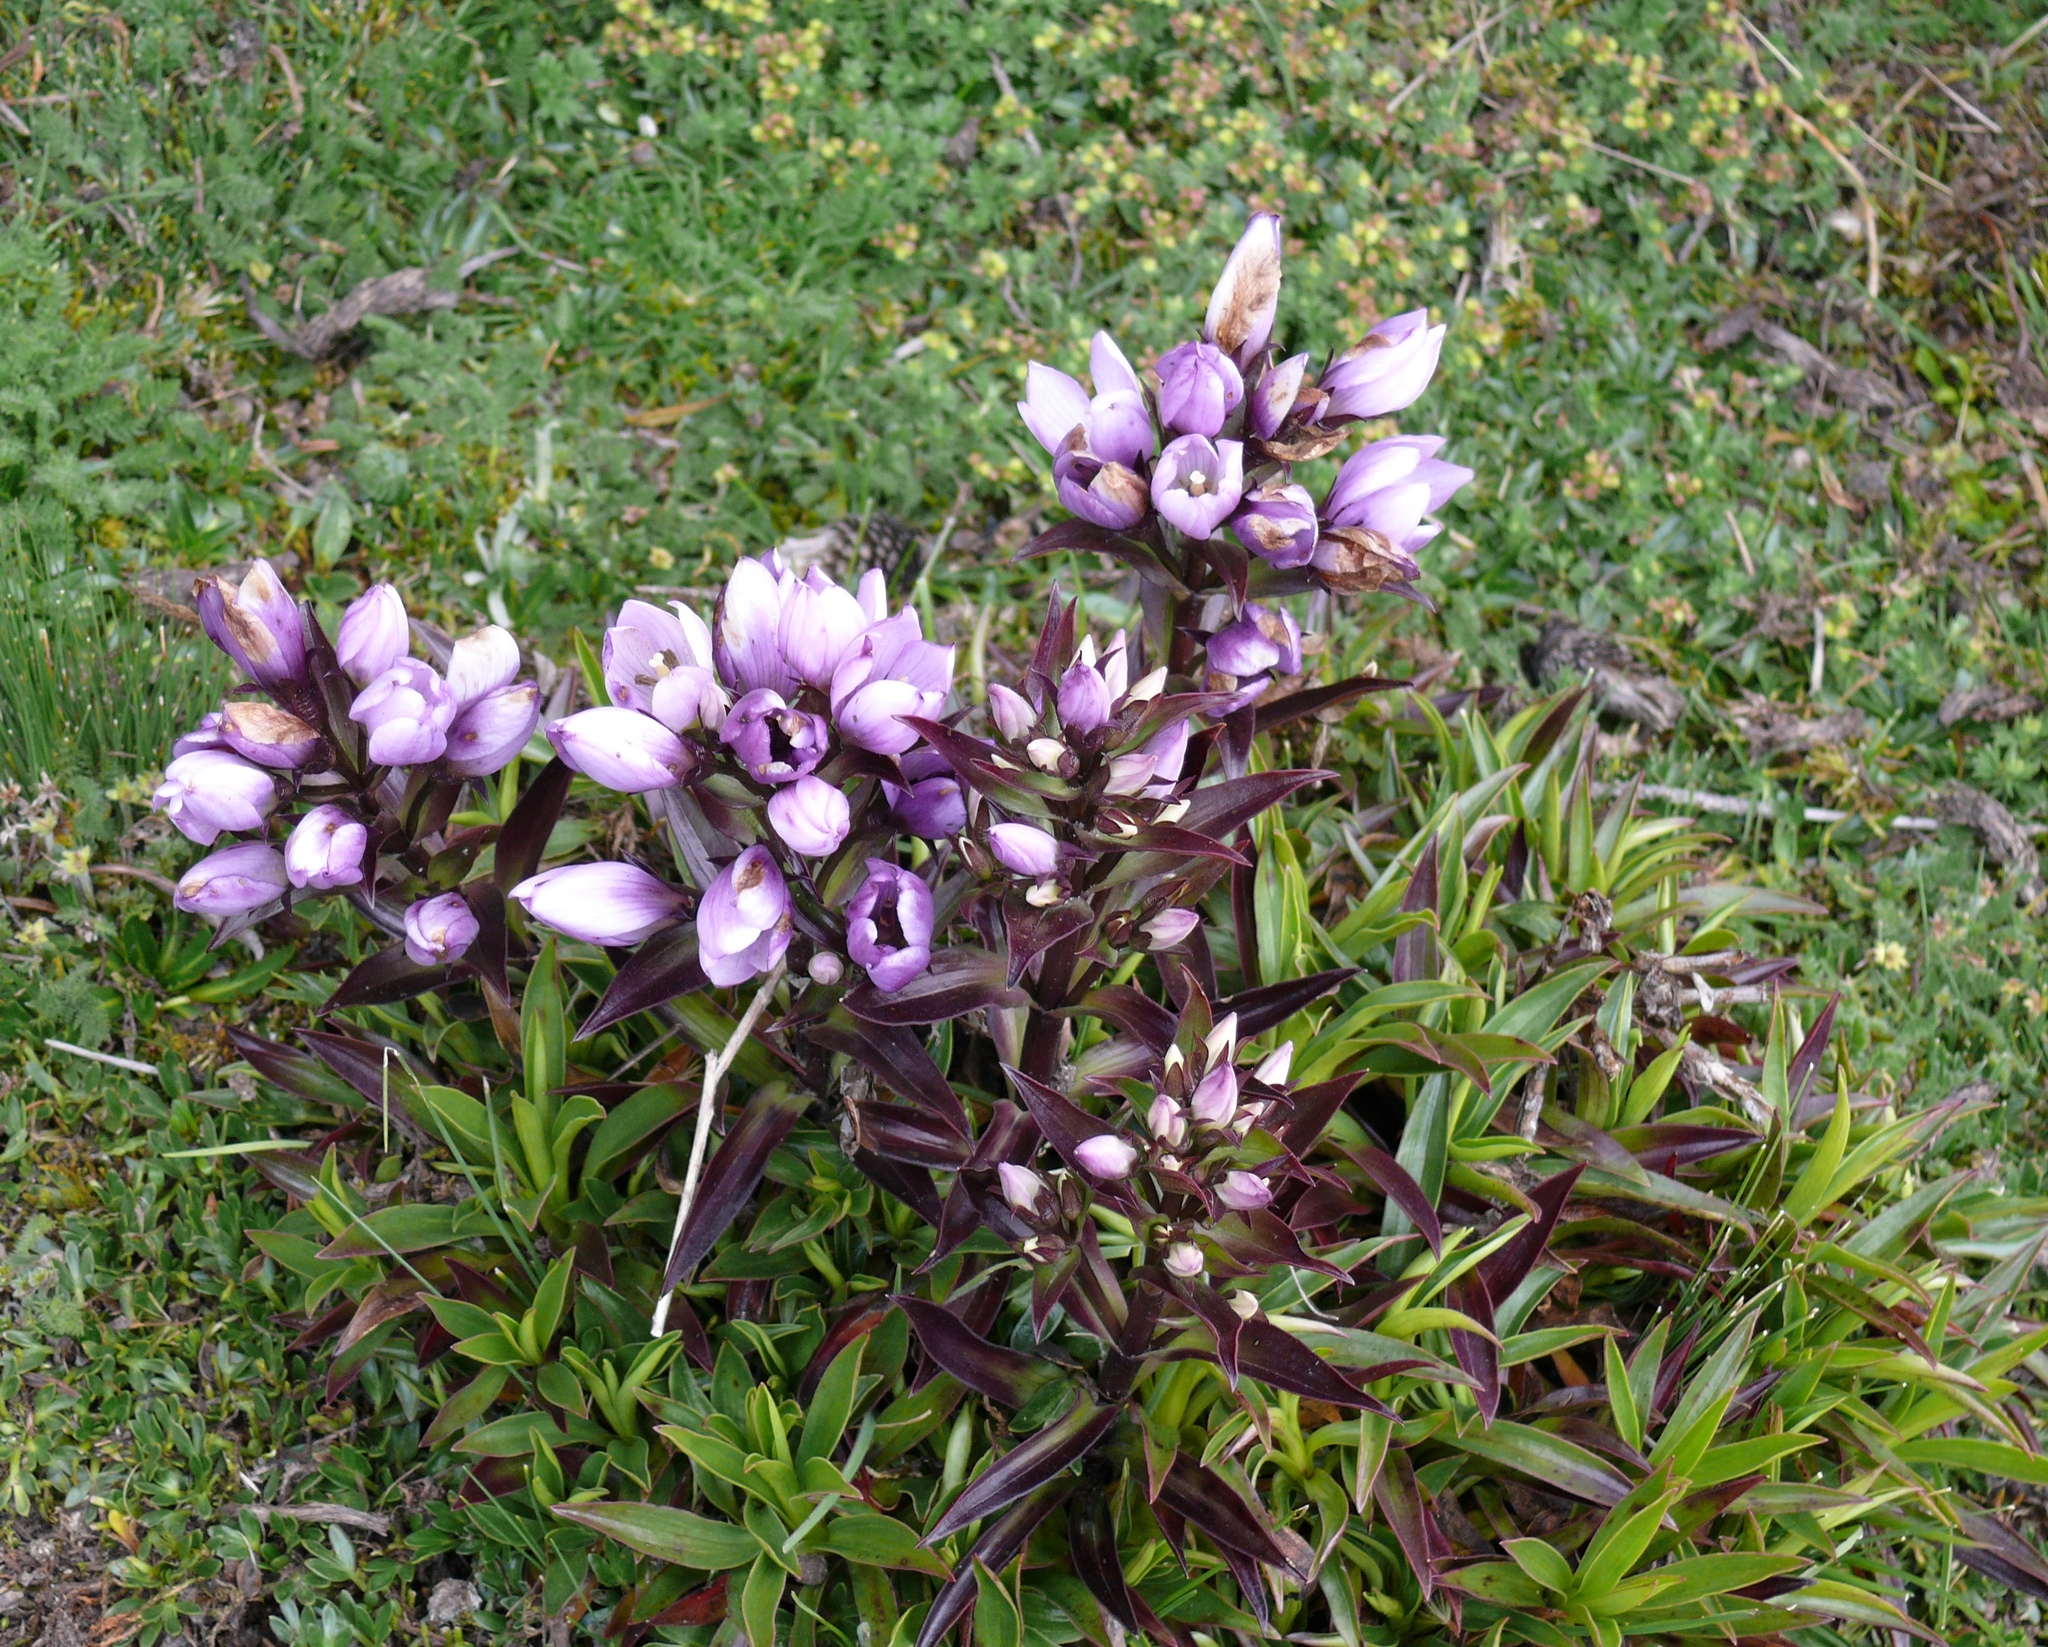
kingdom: Plantae
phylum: Tracheophyta
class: Magnoliopsida
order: Gentianales
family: Gentianaceae
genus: Gentianella
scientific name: Gentianella foliosa
